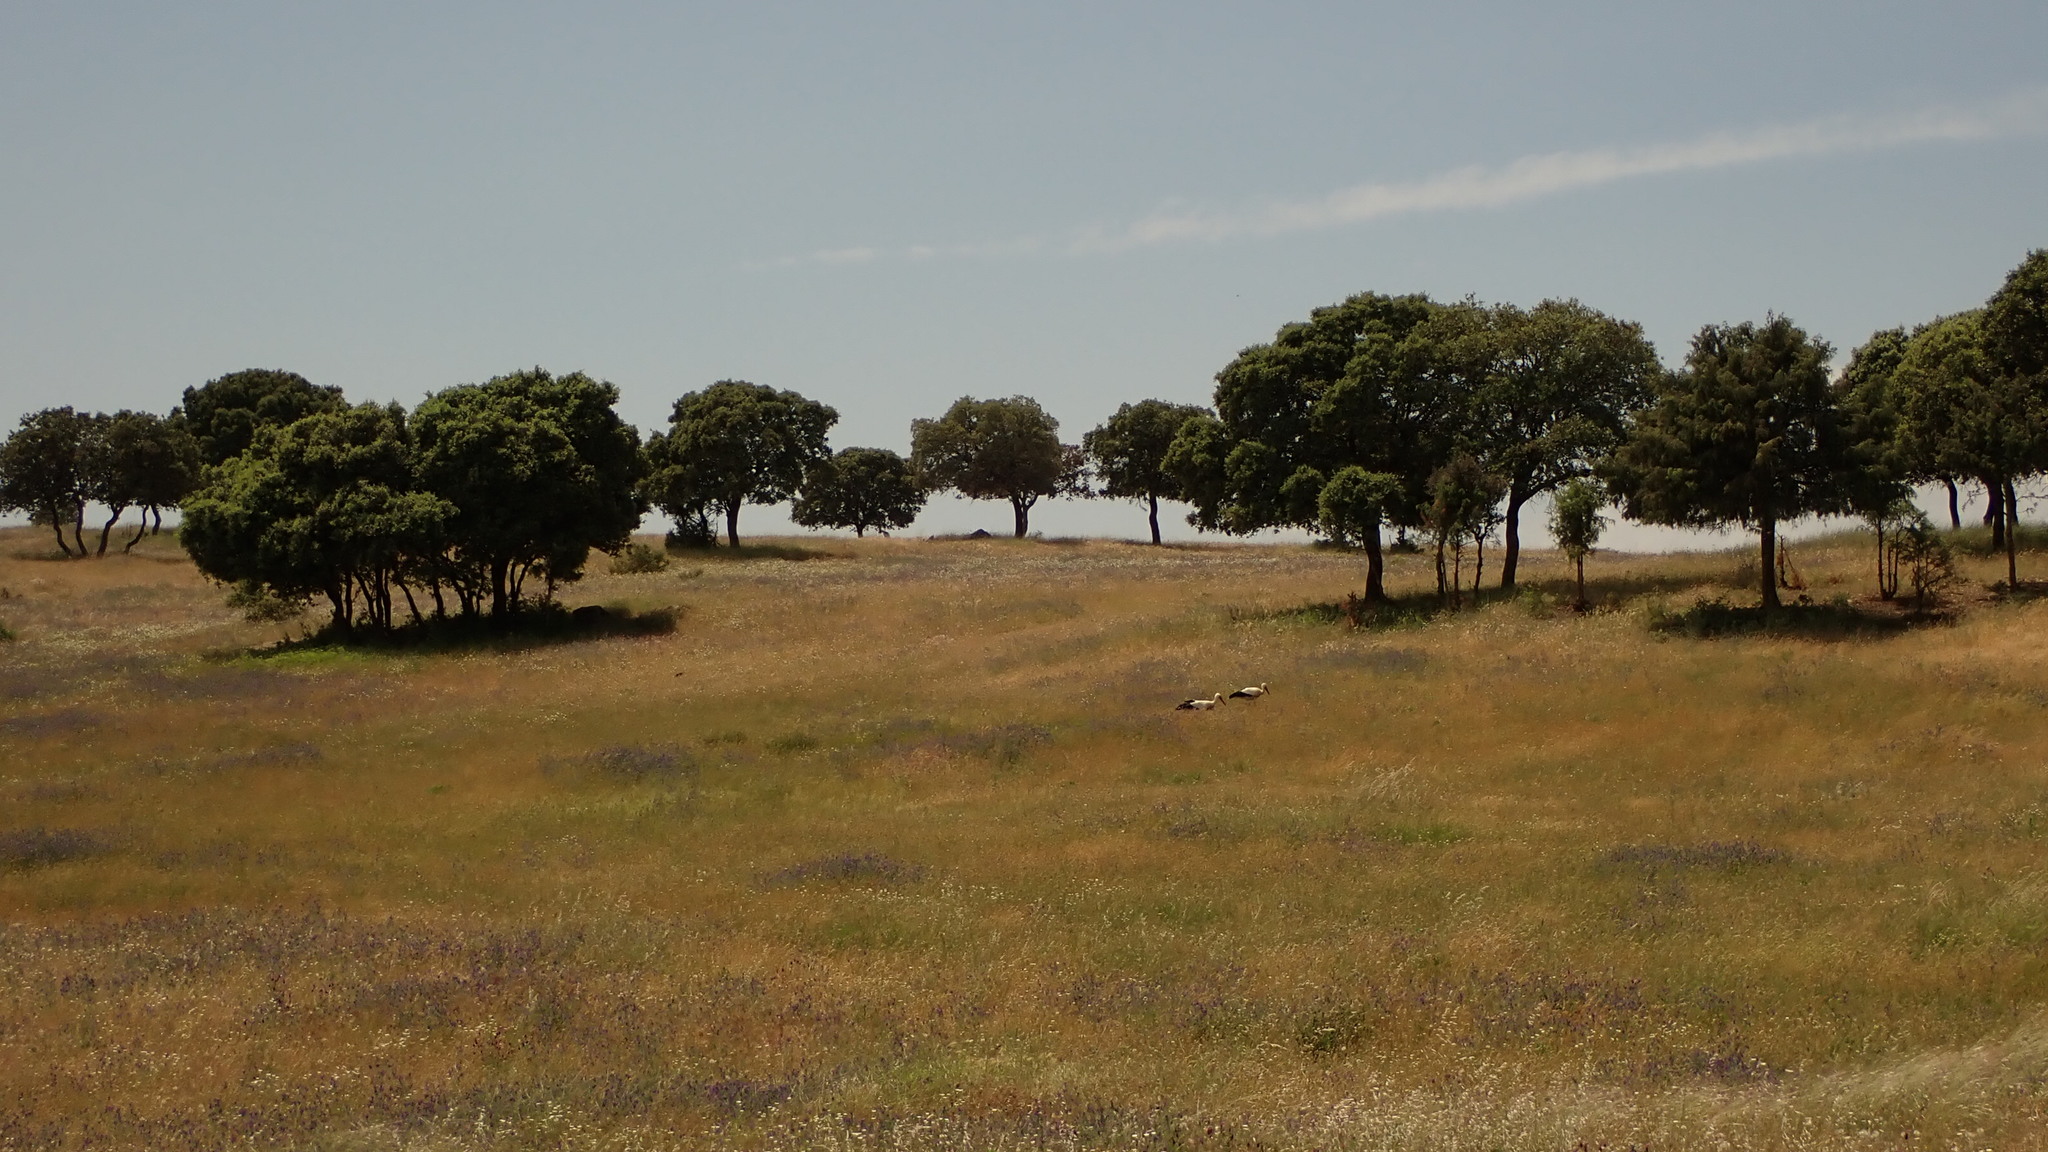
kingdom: Plantae
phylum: Tracheophyta
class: Magnoliopsida
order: Fagales
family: Fagaceae
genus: Quercus
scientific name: Quercus rotundifolia
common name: Holm oak
